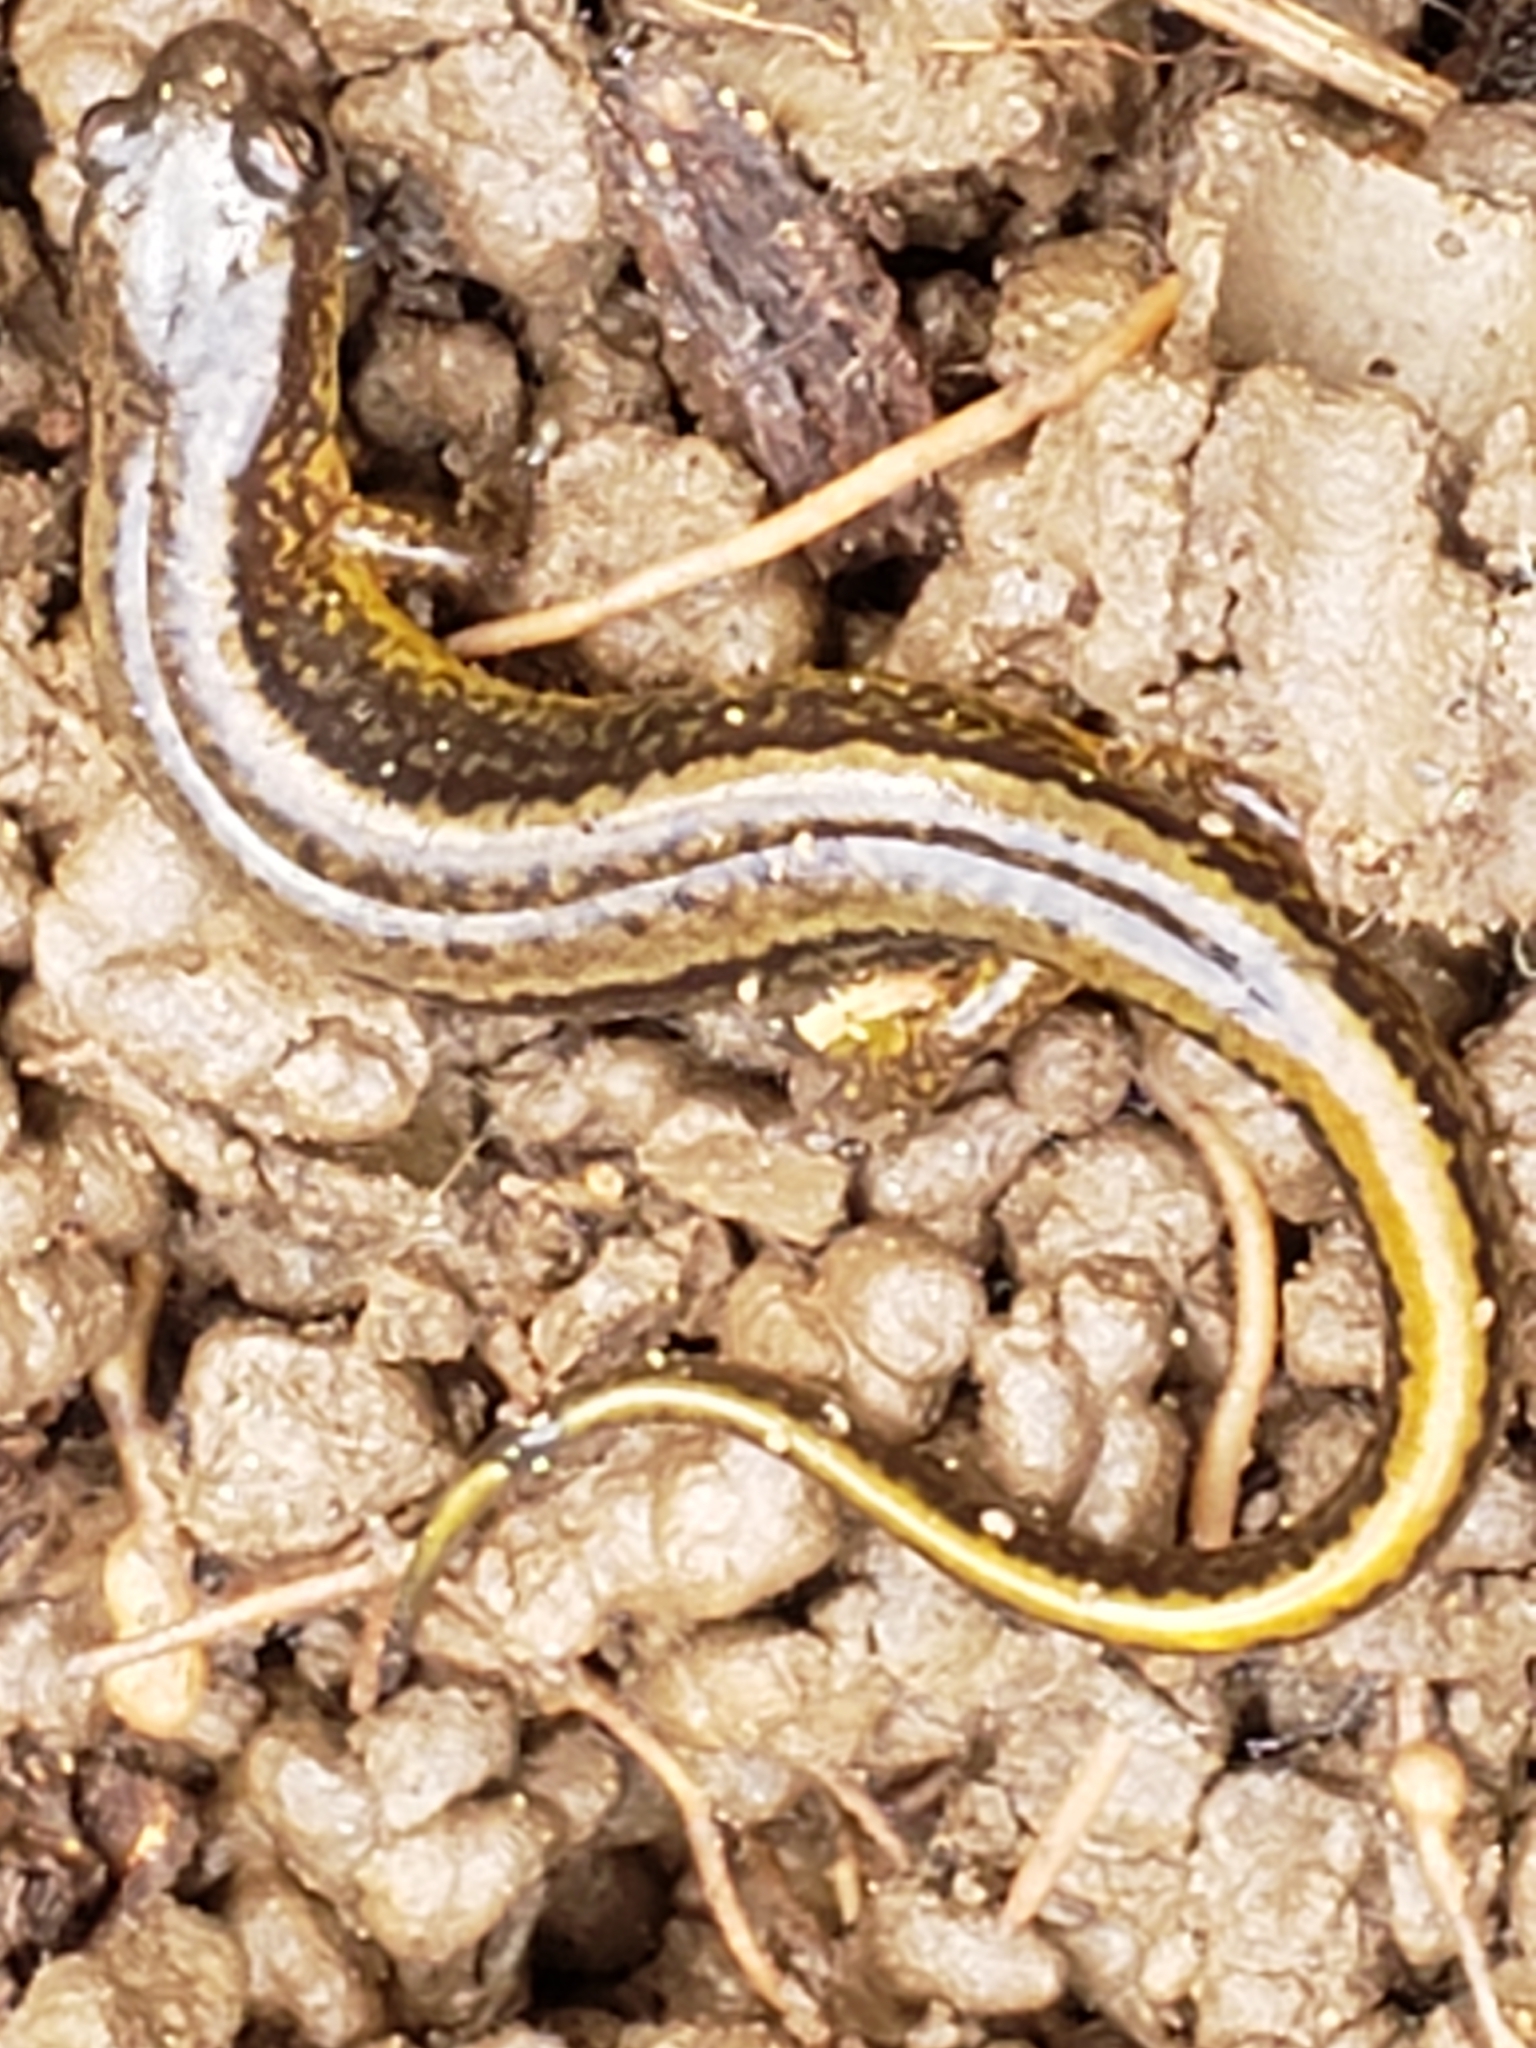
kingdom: Animalia
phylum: Chordata
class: Amphibia
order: Caudata
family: Plethodontidae
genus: Eurycea
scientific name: Eurycea bislineata
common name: Northern two-lined salamander
